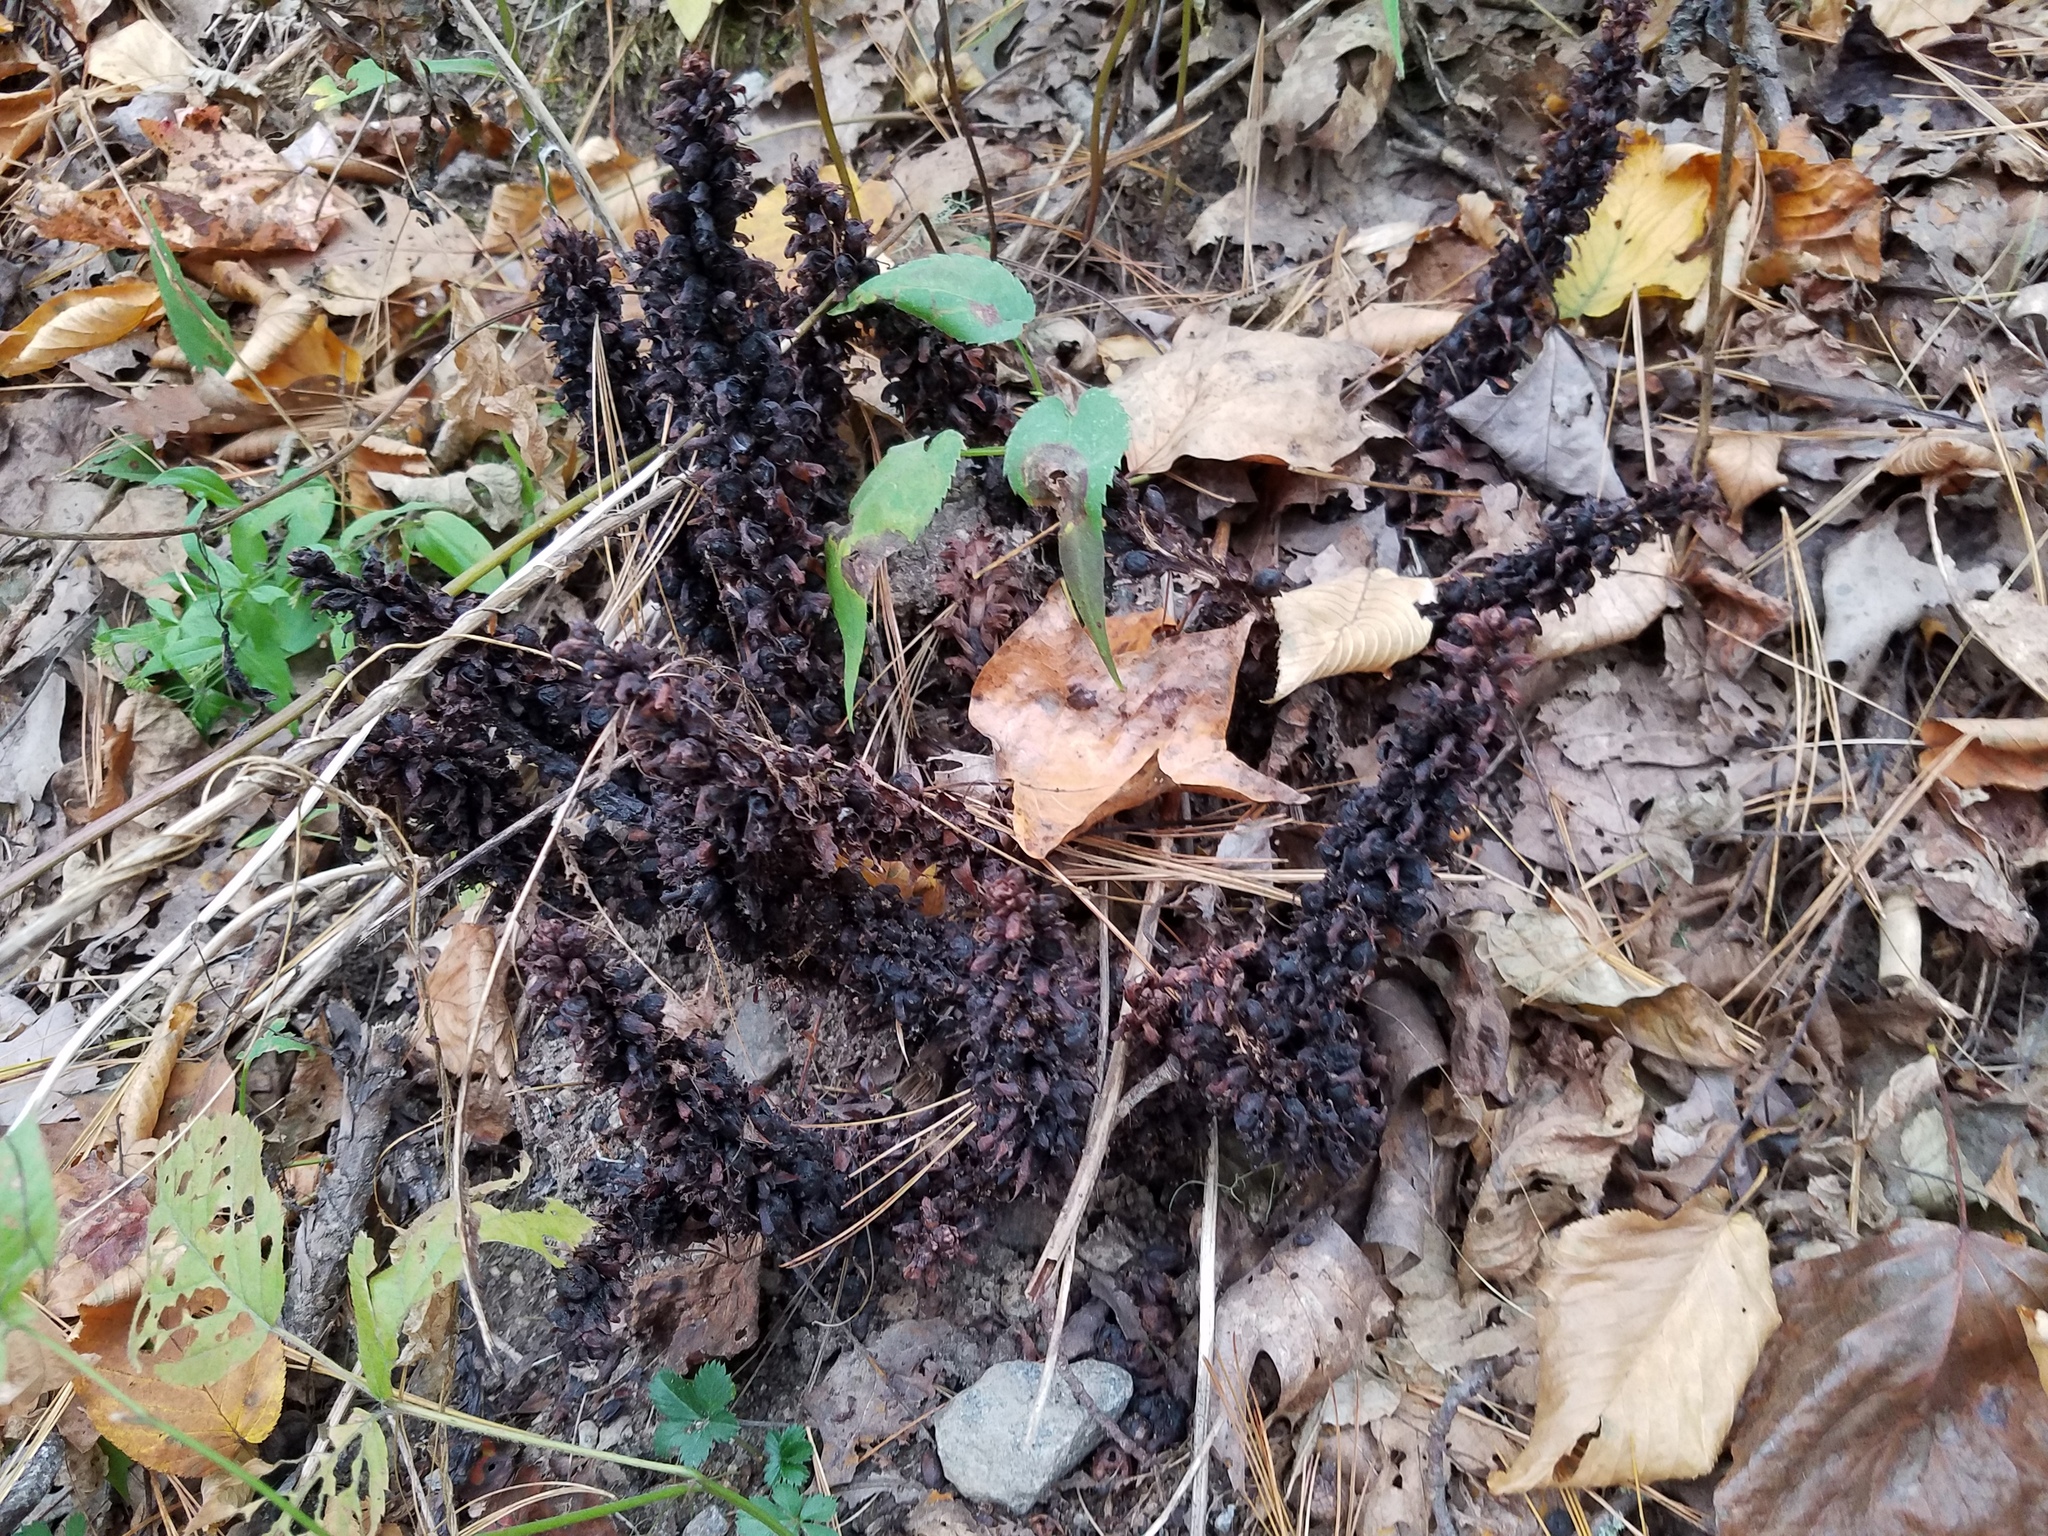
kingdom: Plantae
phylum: Tracheophyta
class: Magnoliopsida
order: Lamiales
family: Orobanchaceae
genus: Conopholis
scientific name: Conopholis americana
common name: American cancer-root
